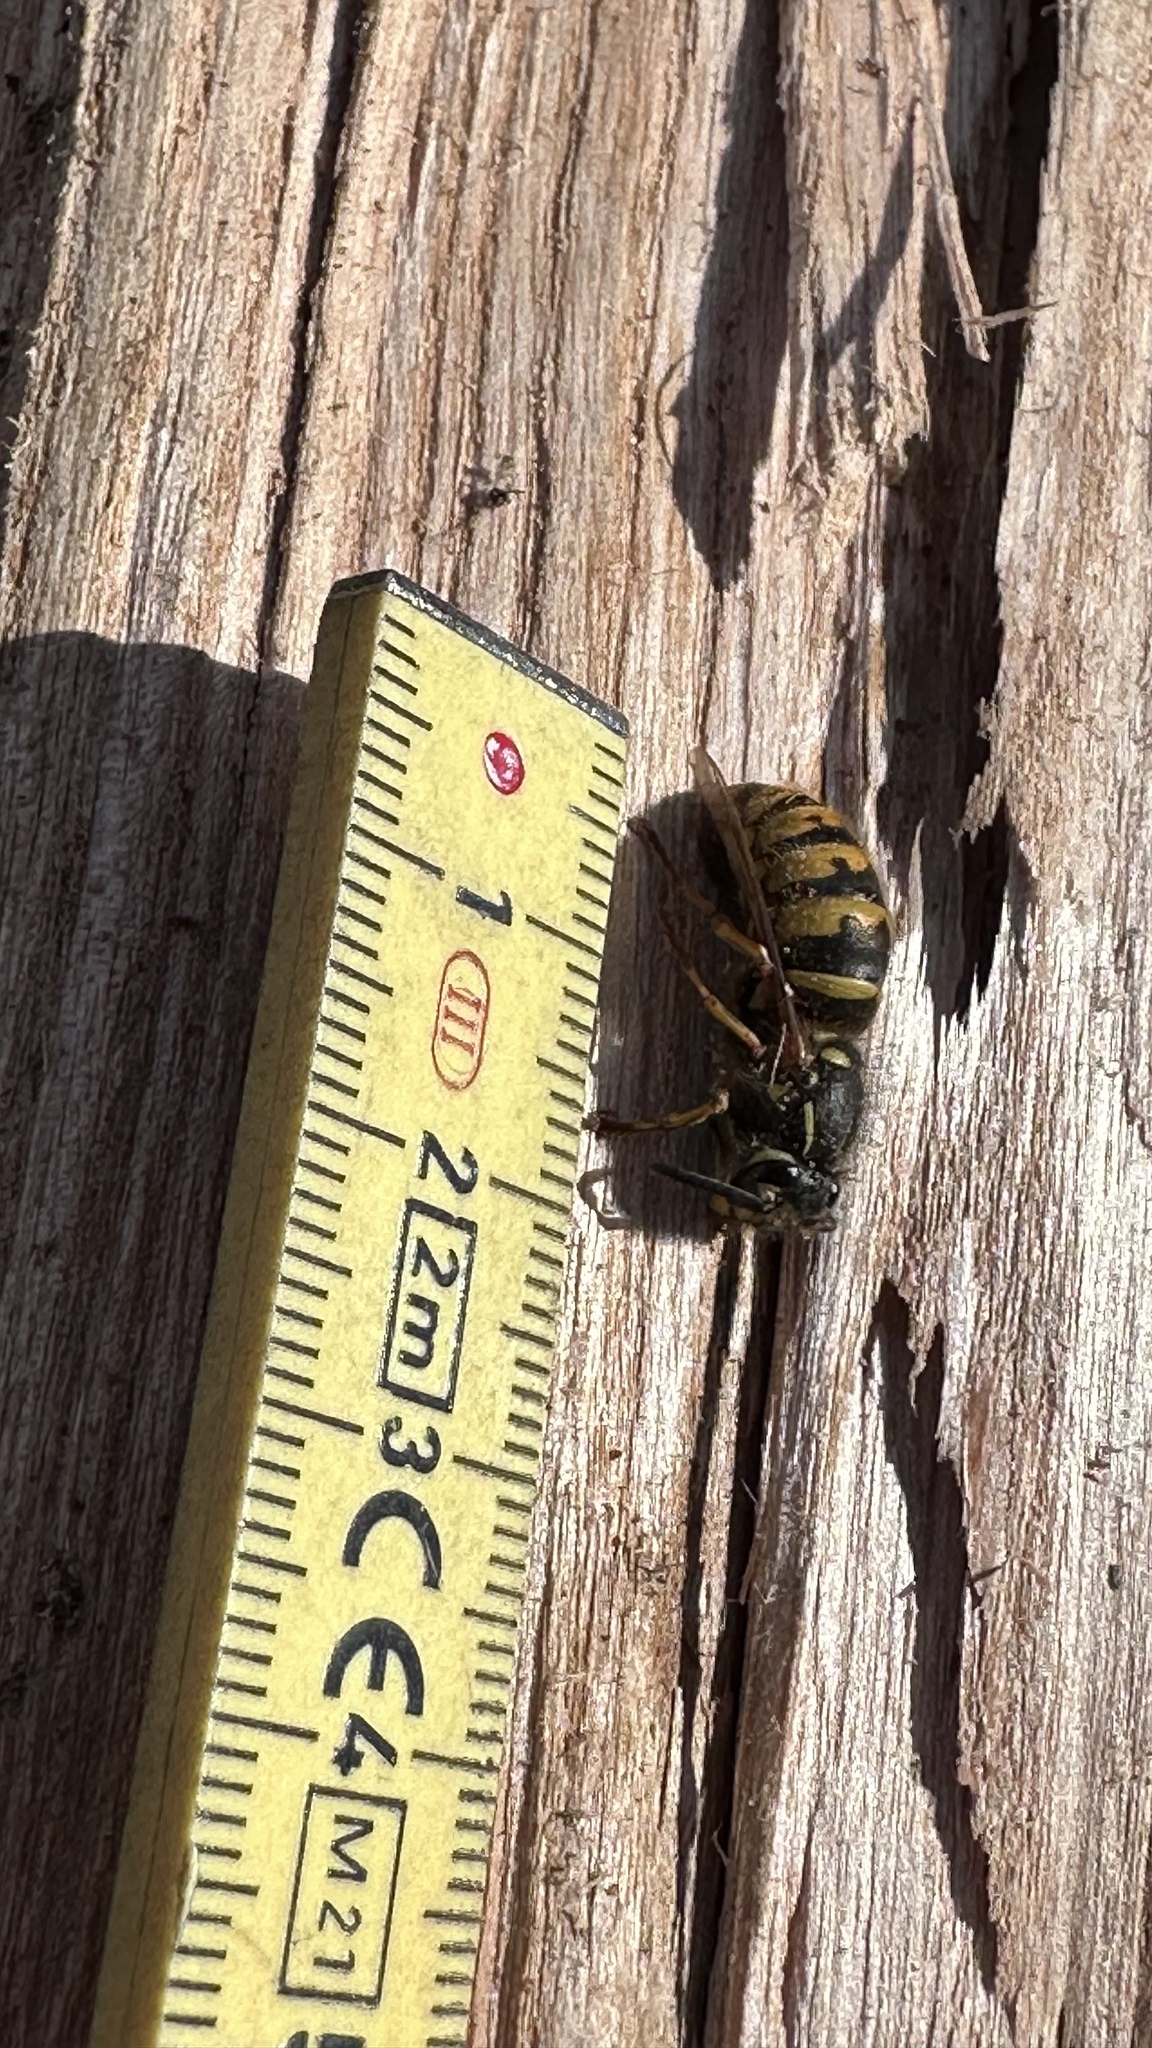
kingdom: Animalia
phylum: Arthropoda
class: Insecta
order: Hymenoptera
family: Vespidae
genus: Vespula
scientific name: Vespula vulgaris
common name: Common wasp
